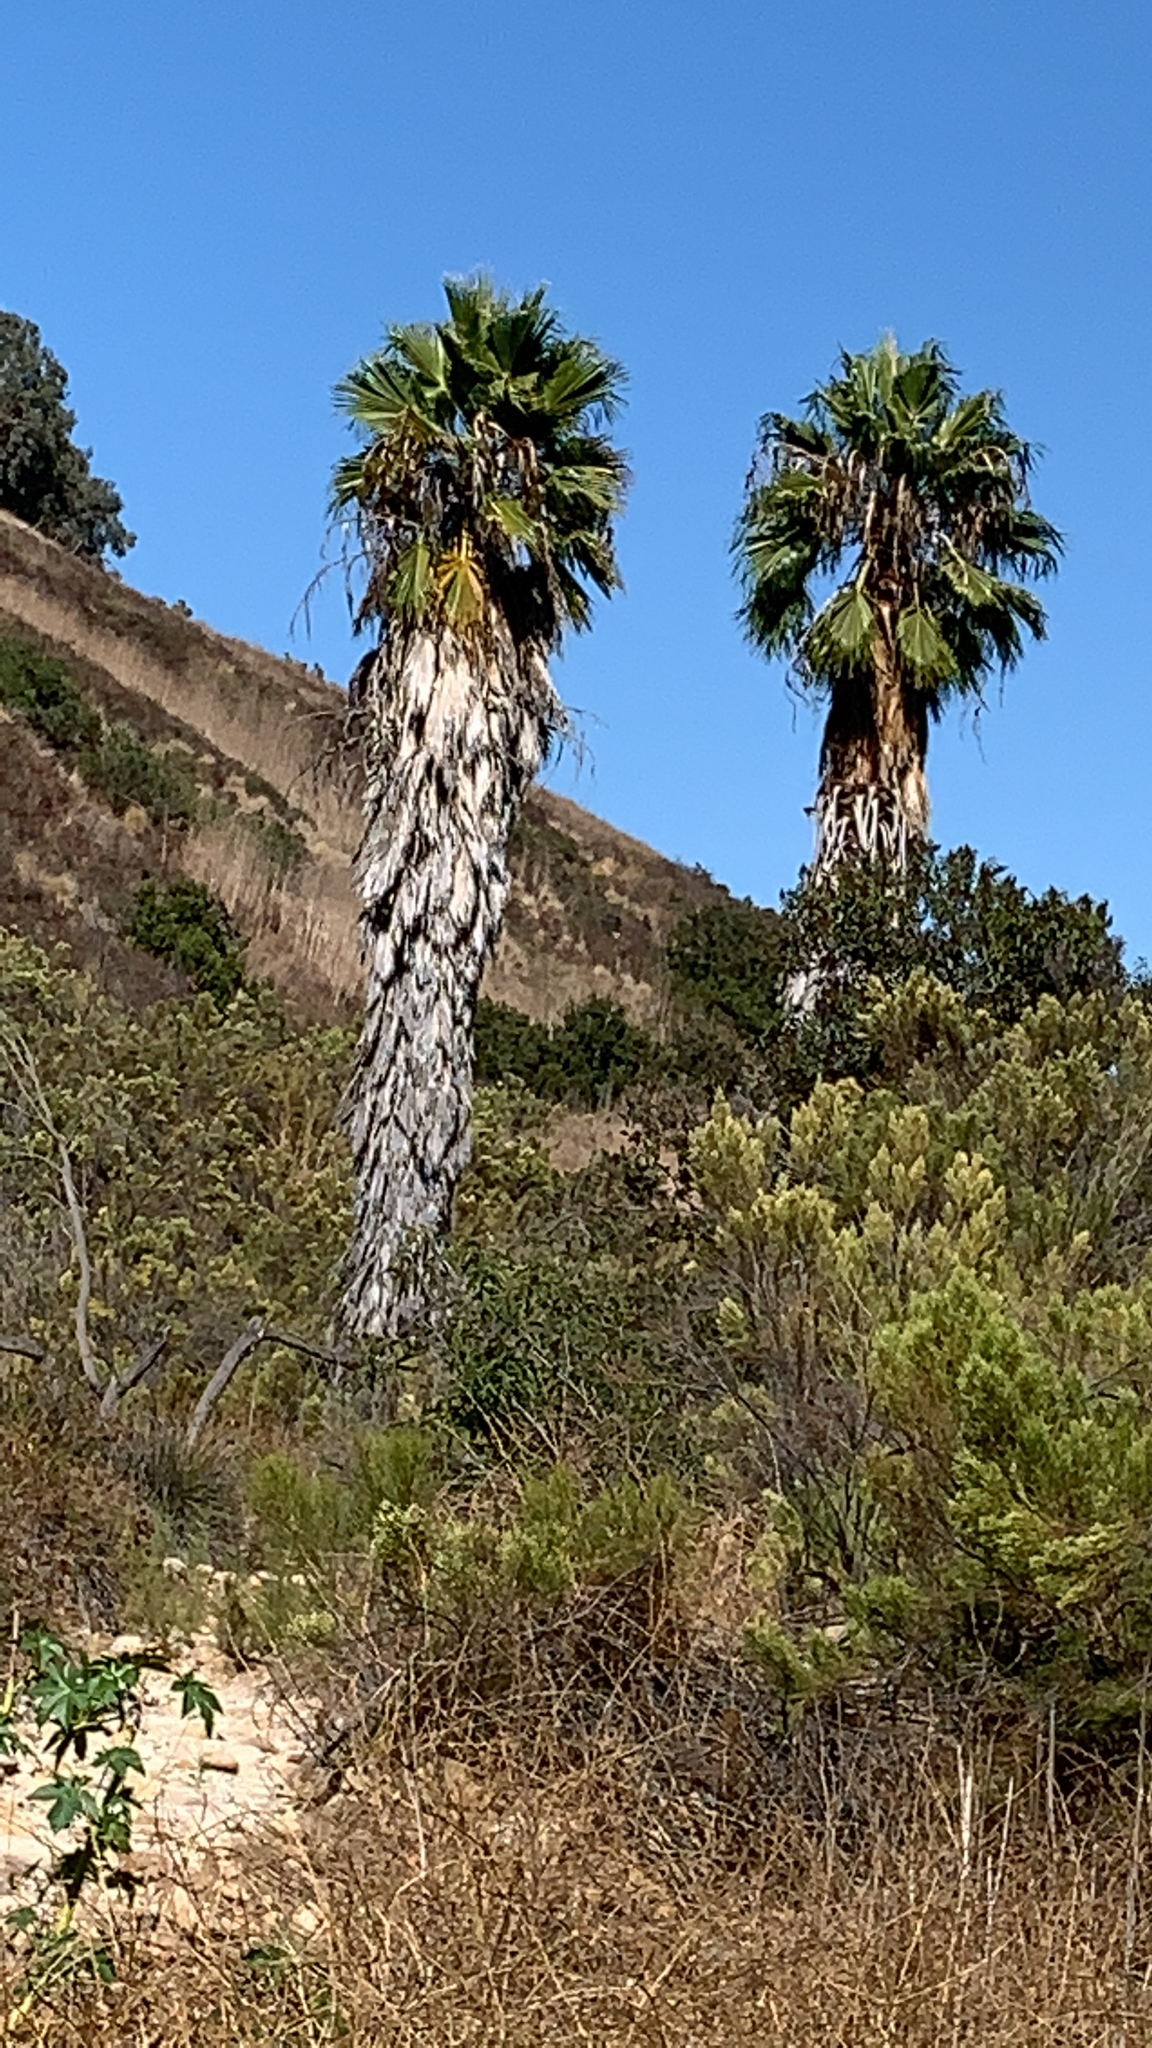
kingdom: Plantae
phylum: Tracheophyta
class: Liliopsida
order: Arecales
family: Arecaceae
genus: Washingtonia
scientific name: Washingtonia robusta
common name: Mexican fan palm
